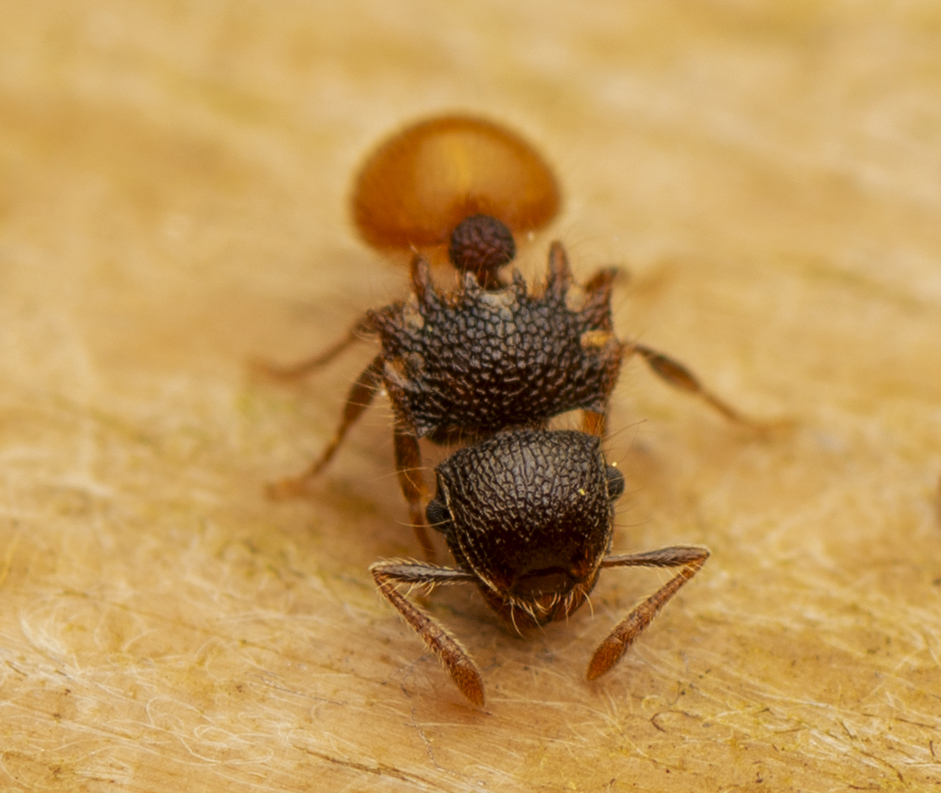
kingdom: Animalia
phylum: Arthropoda
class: Insecta
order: Hymenoptera
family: Formicidae
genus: Meranoplus
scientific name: Meranoplus hirsutus
